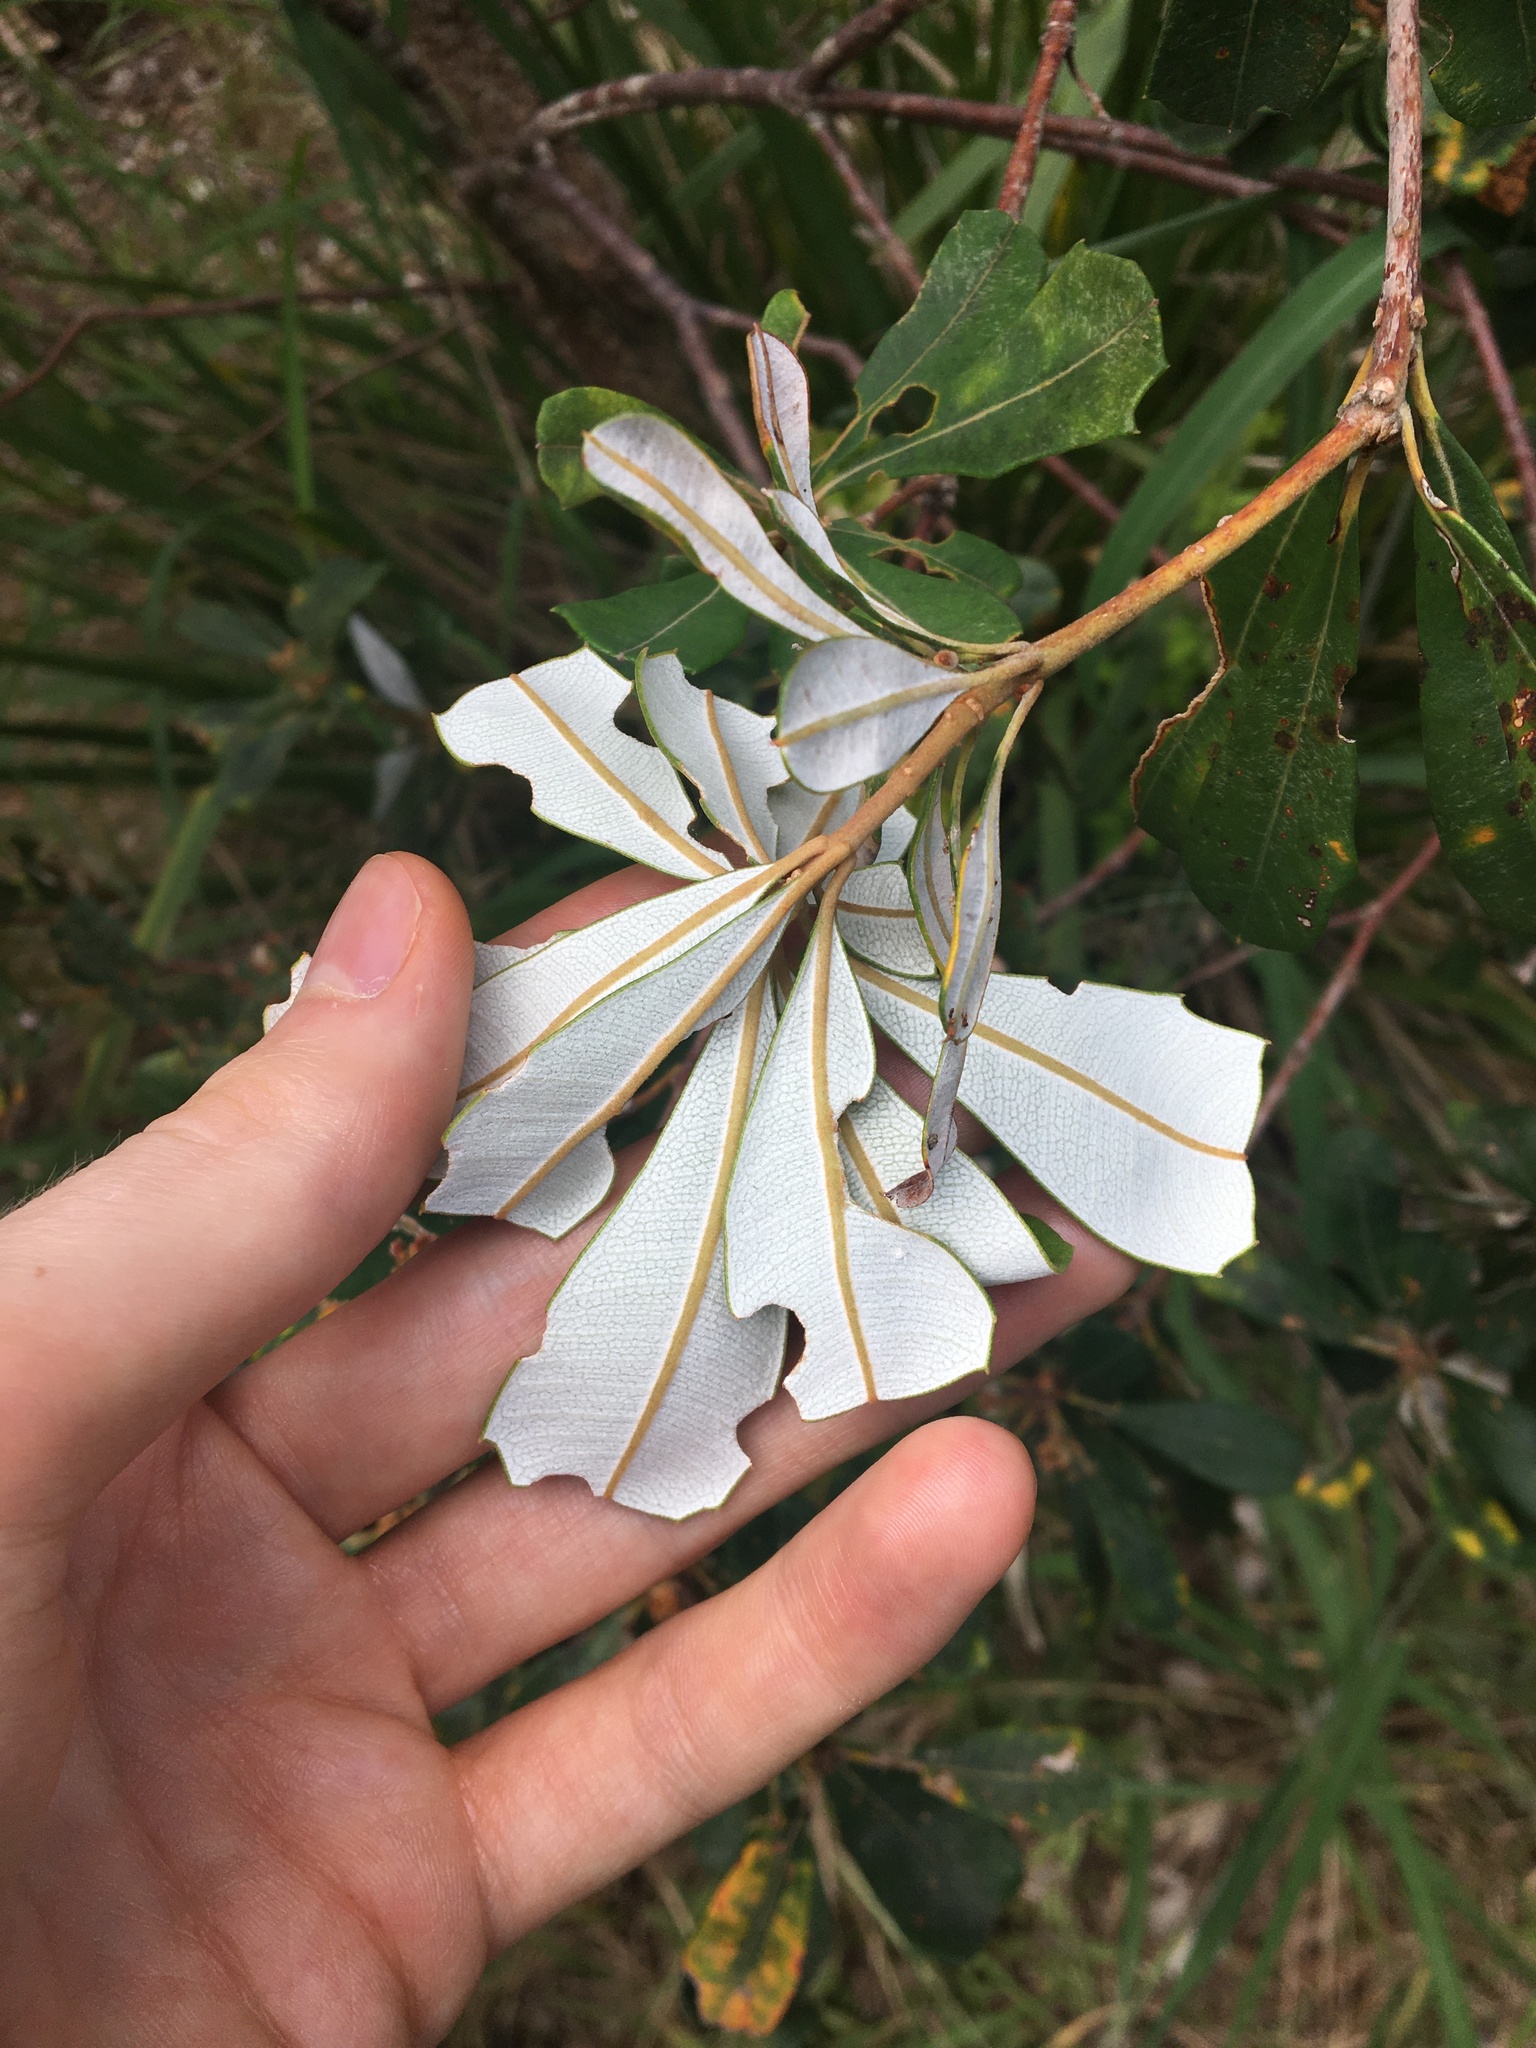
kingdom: Plantae
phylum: Tracheophyta
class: Magnoliopsida
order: Proteales
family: Proteaceae
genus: Banksia
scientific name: Banksia integrifolia
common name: White-honeysuckle
